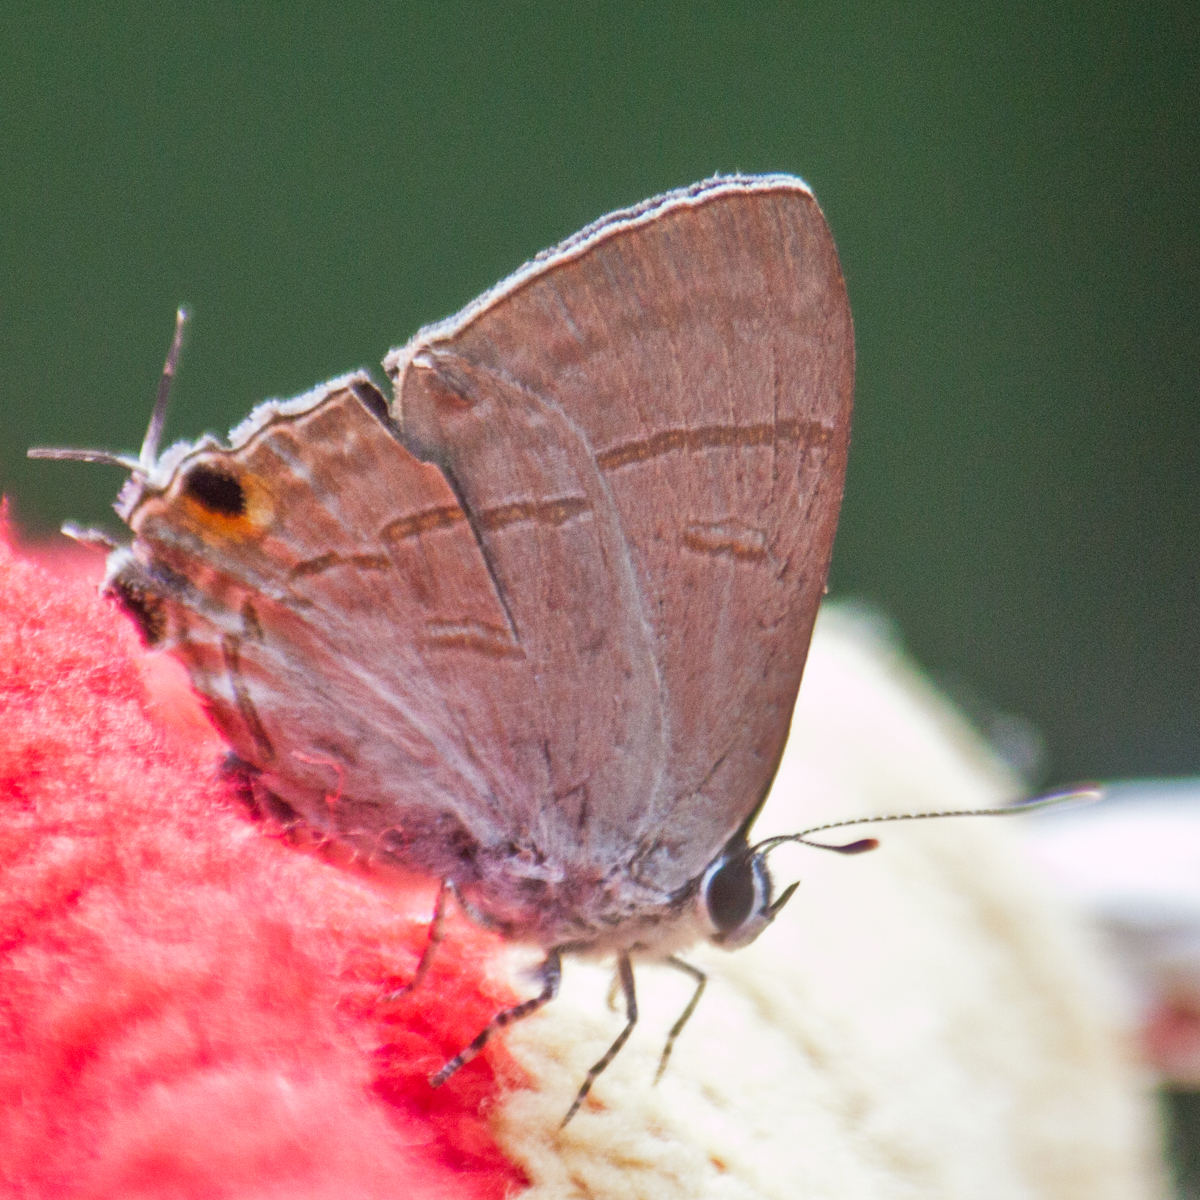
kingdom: Animalia
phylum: Arthropoda
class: Insecta
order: Lepidoptera
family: Lycaenidae
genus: Hypolycaena
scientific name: Hypolycaena erylus
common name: Common tit
